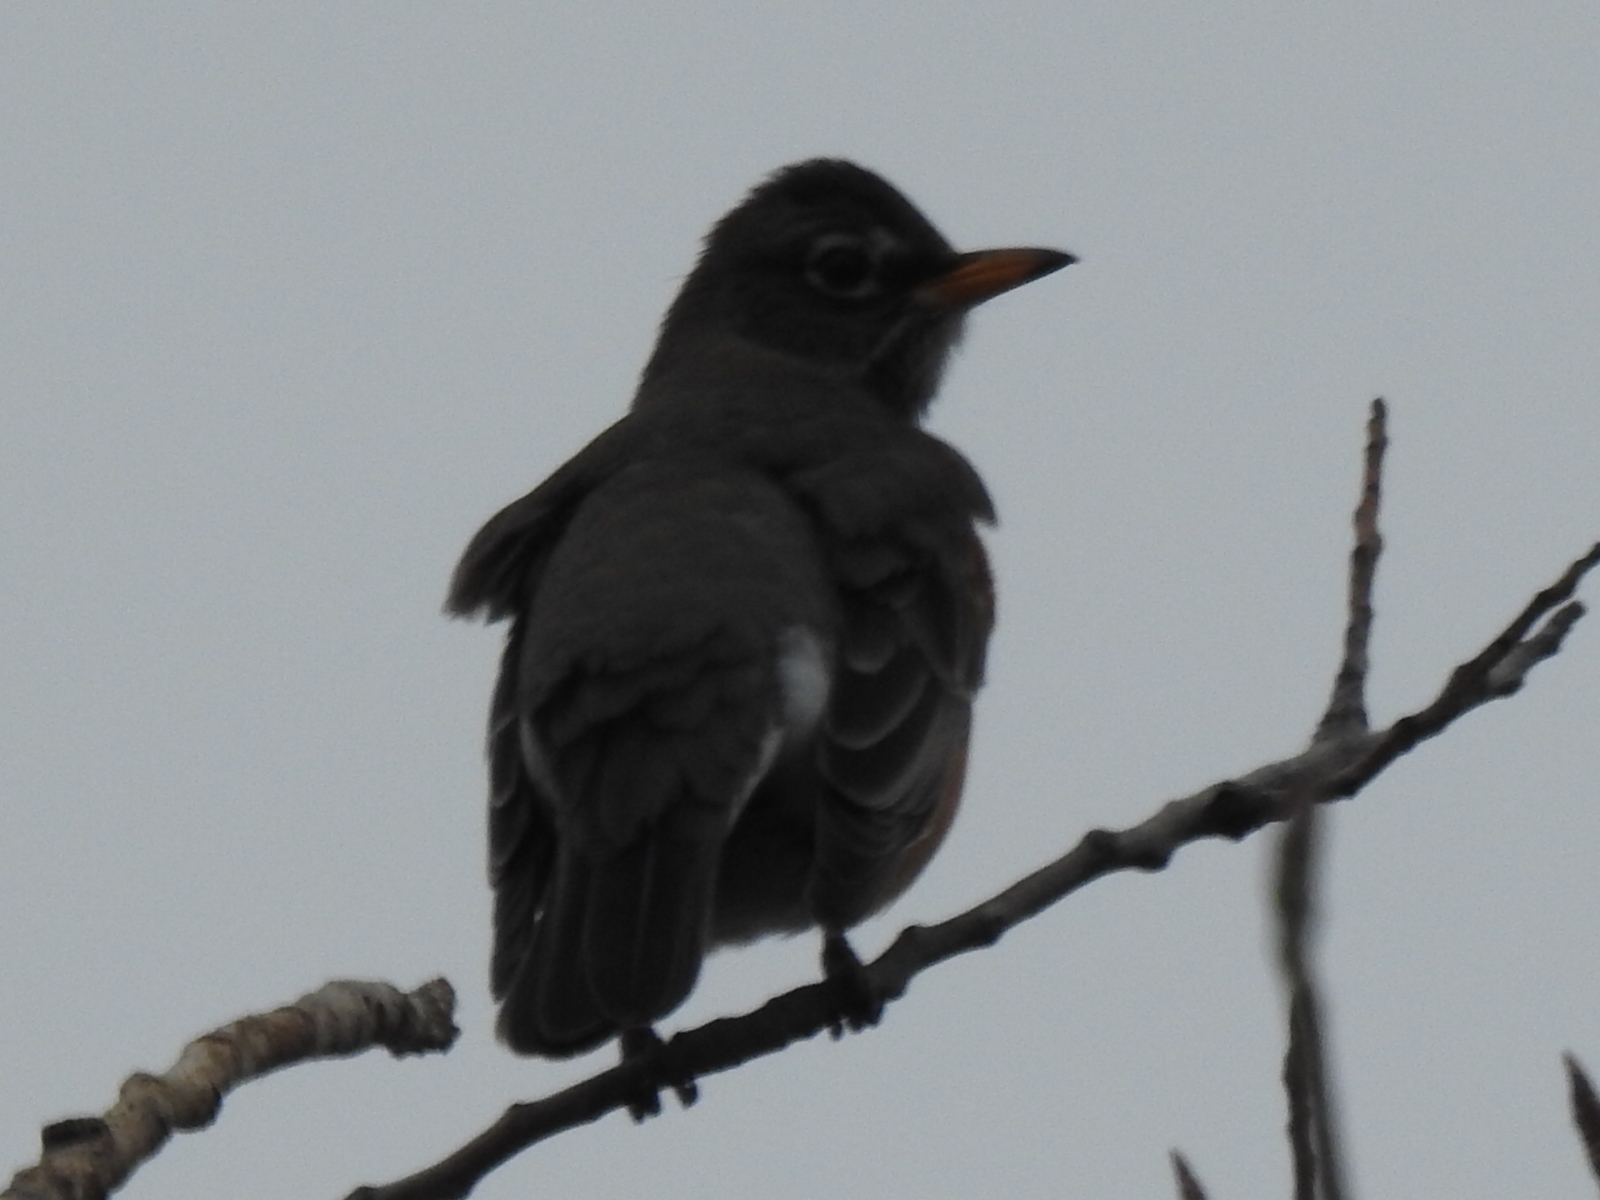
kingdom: Animalia
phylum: Chordata
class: Aves
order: Passeriformes
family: Turdidae
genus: Turdus
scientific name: Turdus migratorius
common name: American robin
